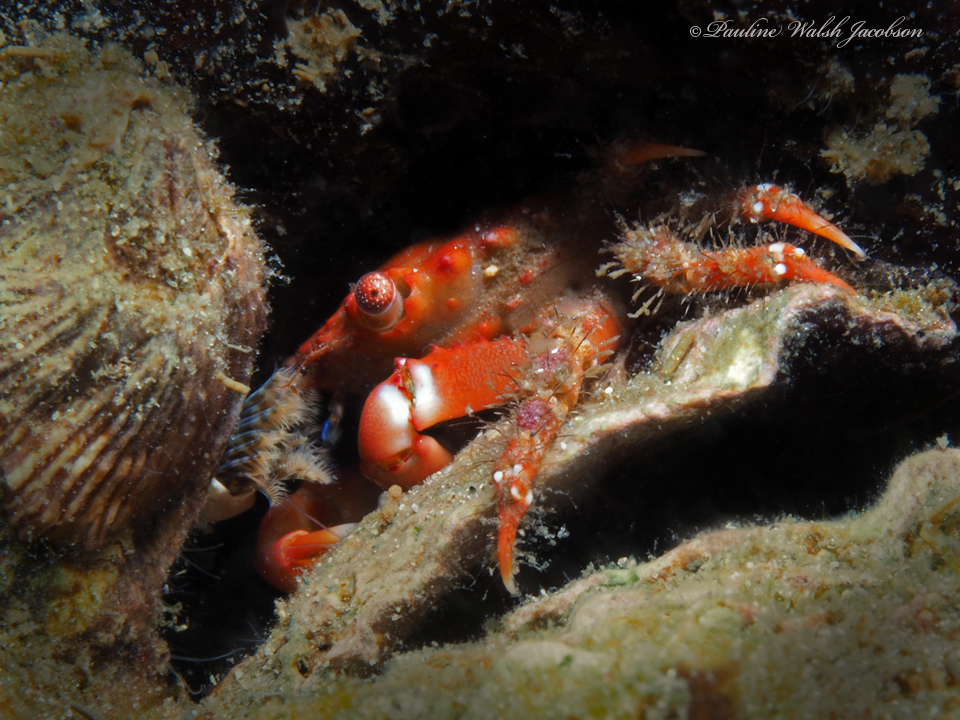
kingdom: Animalia
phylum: Arthropoda
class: Malacostraca
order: Decapoda
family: Mithracidae
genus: Mithraculus
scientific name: Mithraculus forceps
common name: Red-ridged clinging crab
